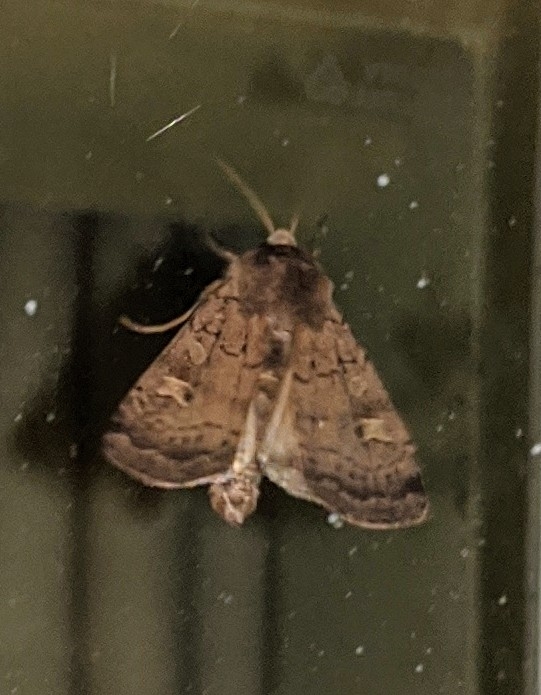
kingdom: Animalia
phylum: Arthropoda
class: Insecta
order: Lepidoptera
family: Noctuidae
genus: Xestia
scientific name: Xestia xanthographa
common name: Square-spot rustic
